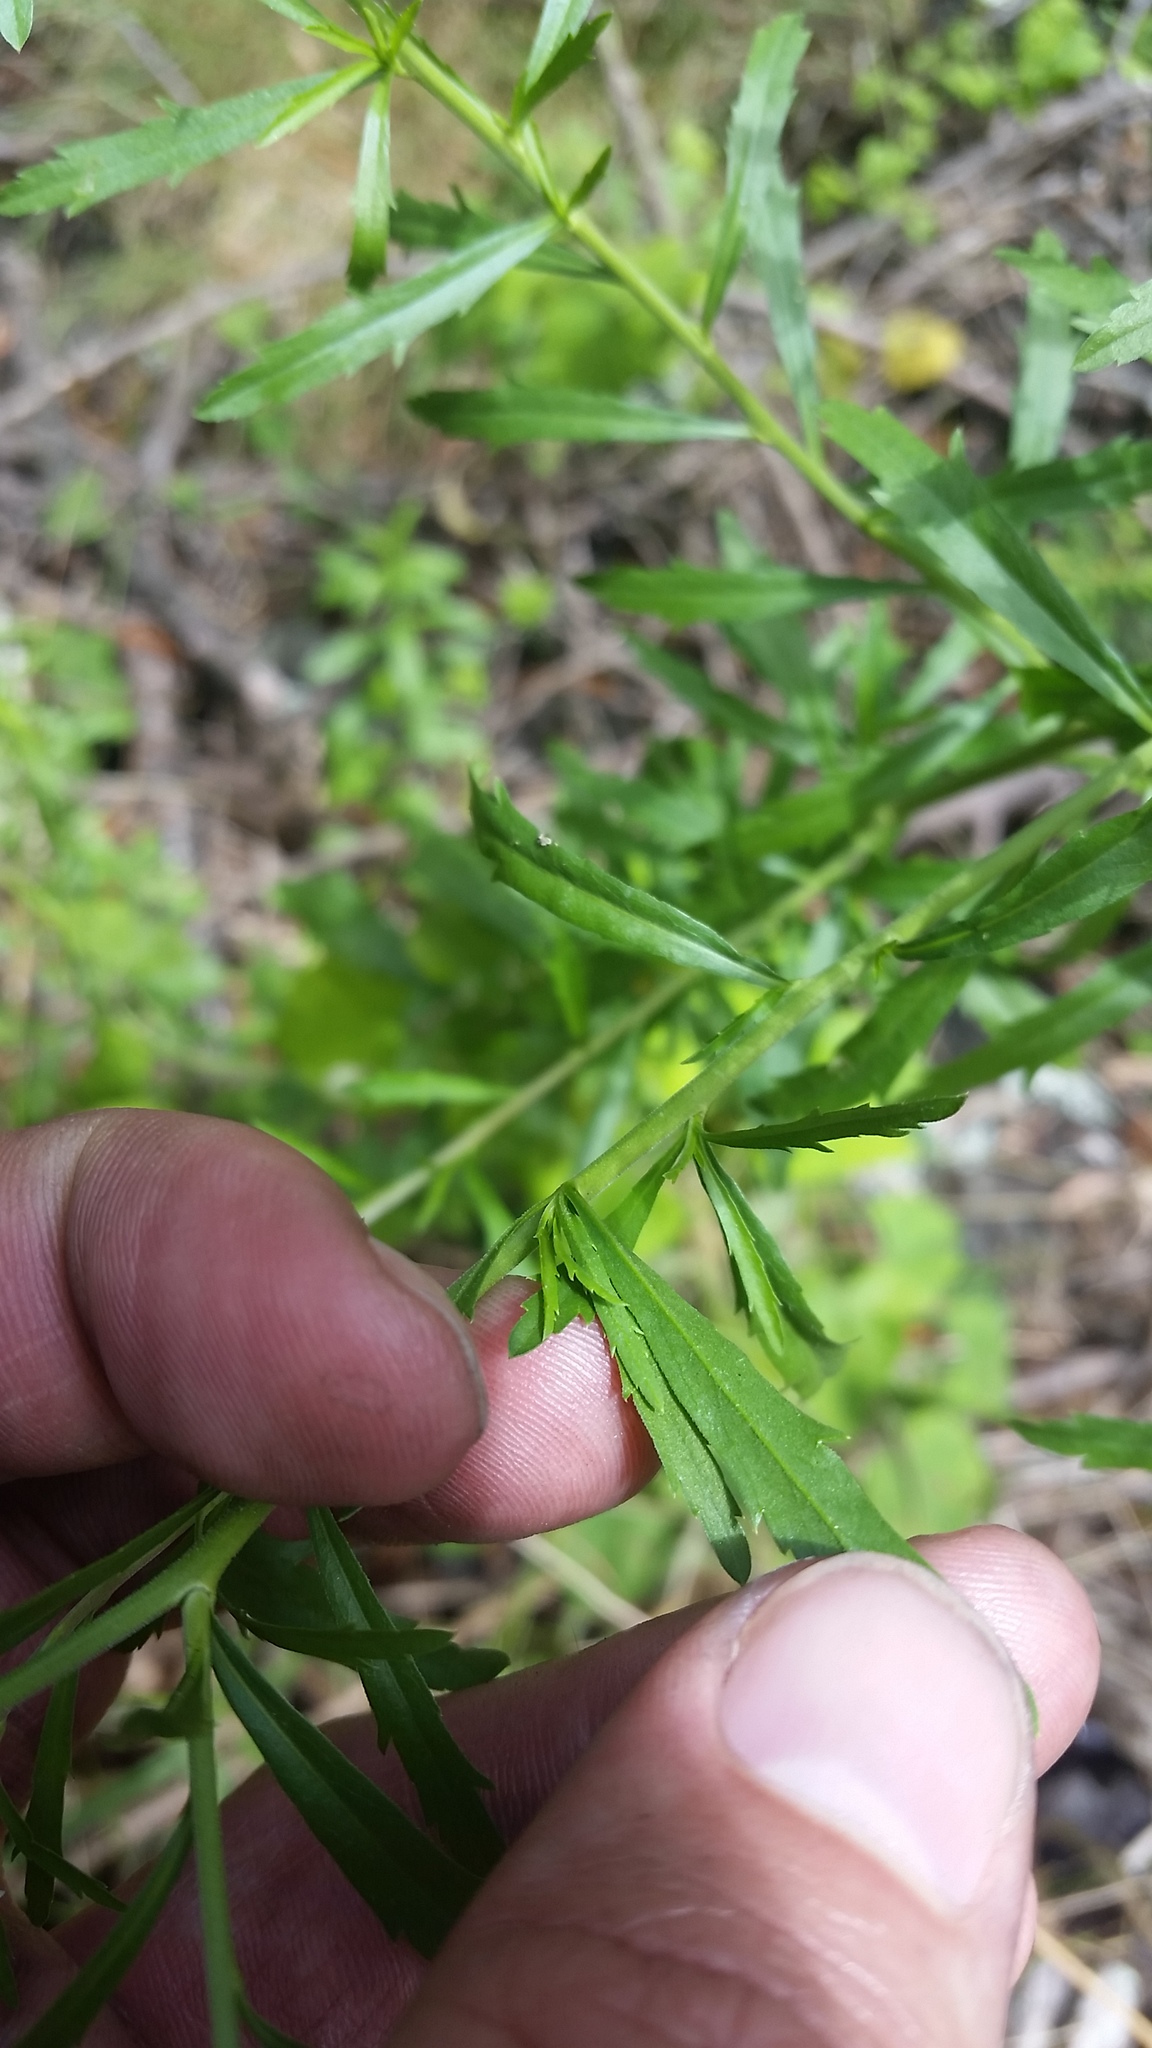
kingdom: Plantae
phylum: Tracheophyta
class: Magnoliopsida
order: Brassicales
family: Brassicaceae
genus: Lepidium
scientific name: Lepidium virginicum
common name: Least pepperwort
